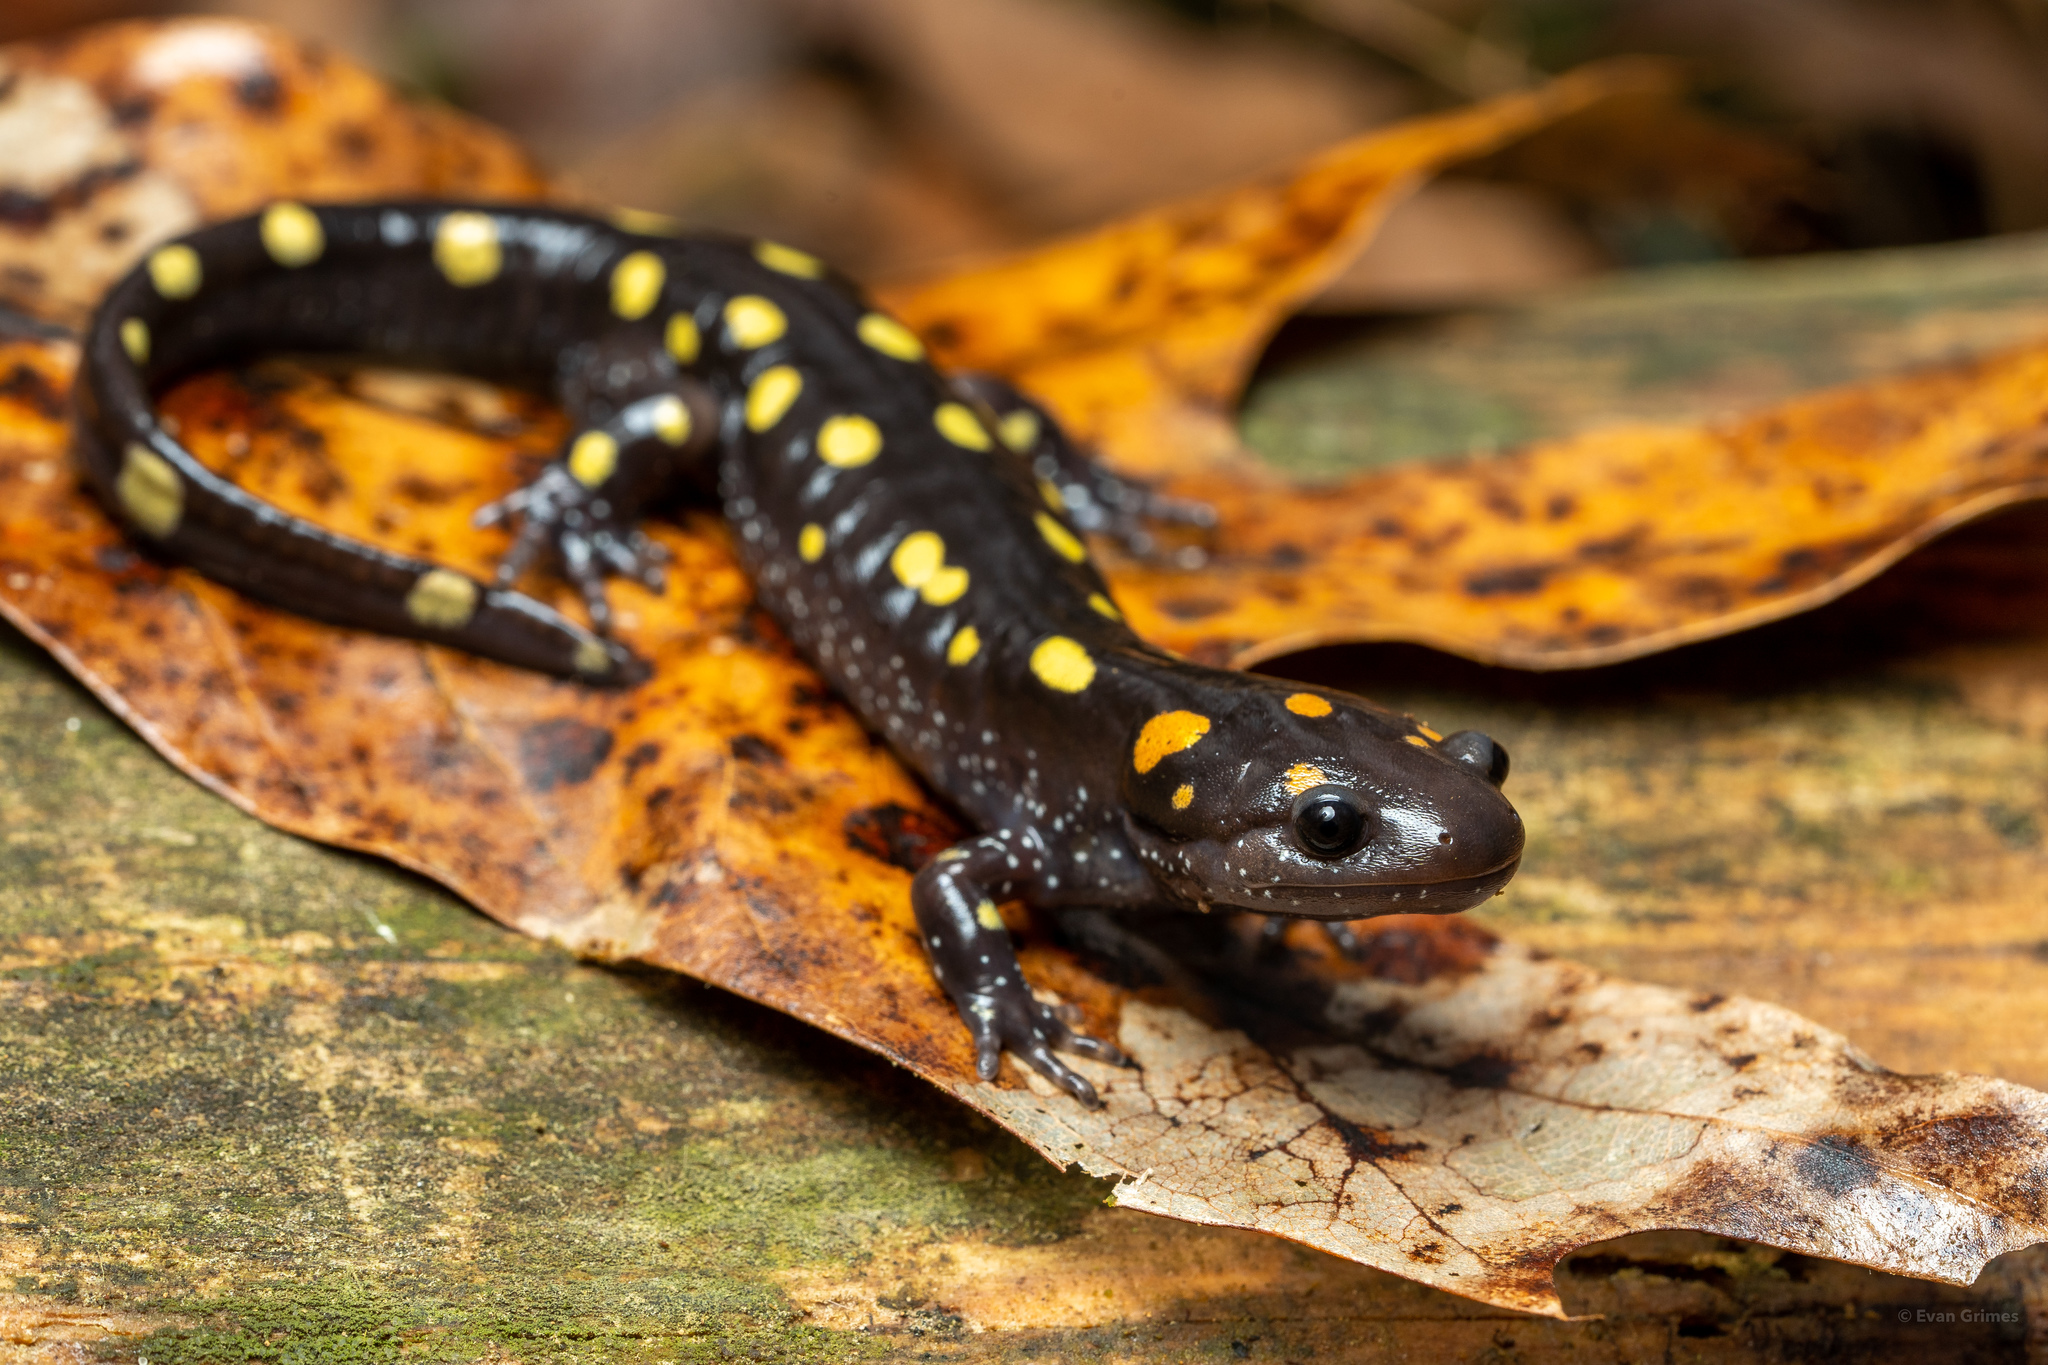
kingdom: Animalia
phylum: Chordata
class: Amphibia
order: Caudata
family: Ambystomatidae
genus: Ambystoma
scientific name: Ambystoma maculatum
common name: Spotted salamander
